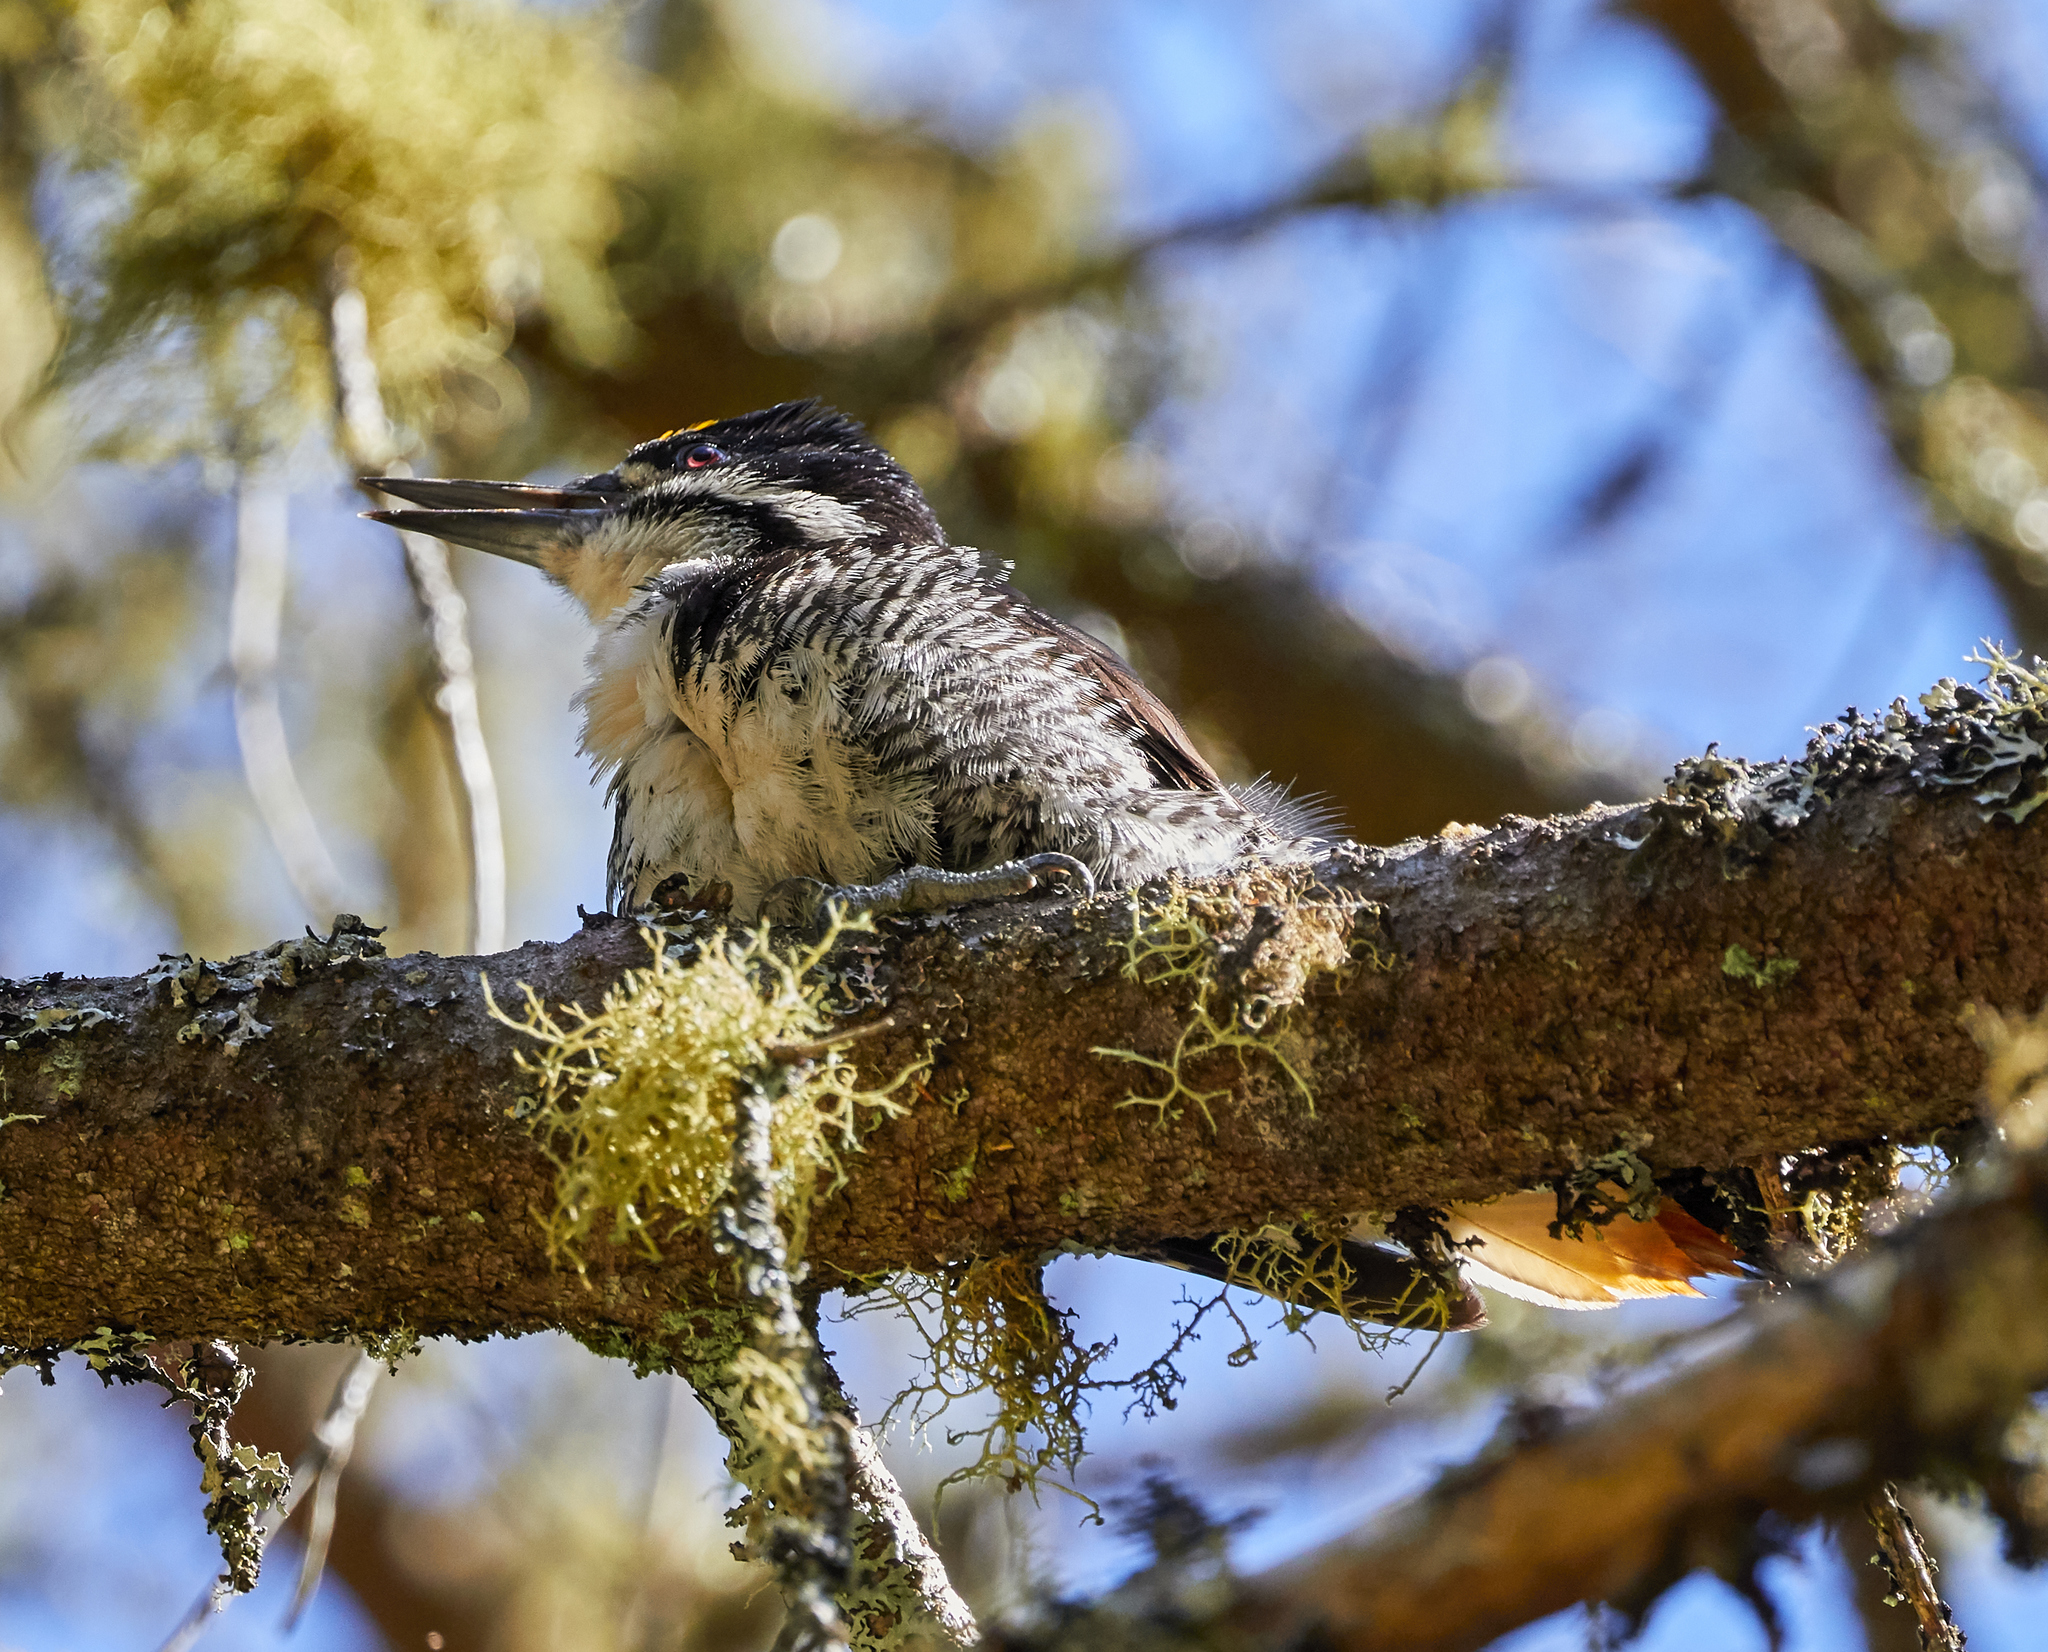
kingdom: Animalia
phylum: Chordata
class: Aves
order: Piciformes
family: Picidae
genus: Picoides
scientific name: Picoides arcticus
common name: Black-backed woodpecker
